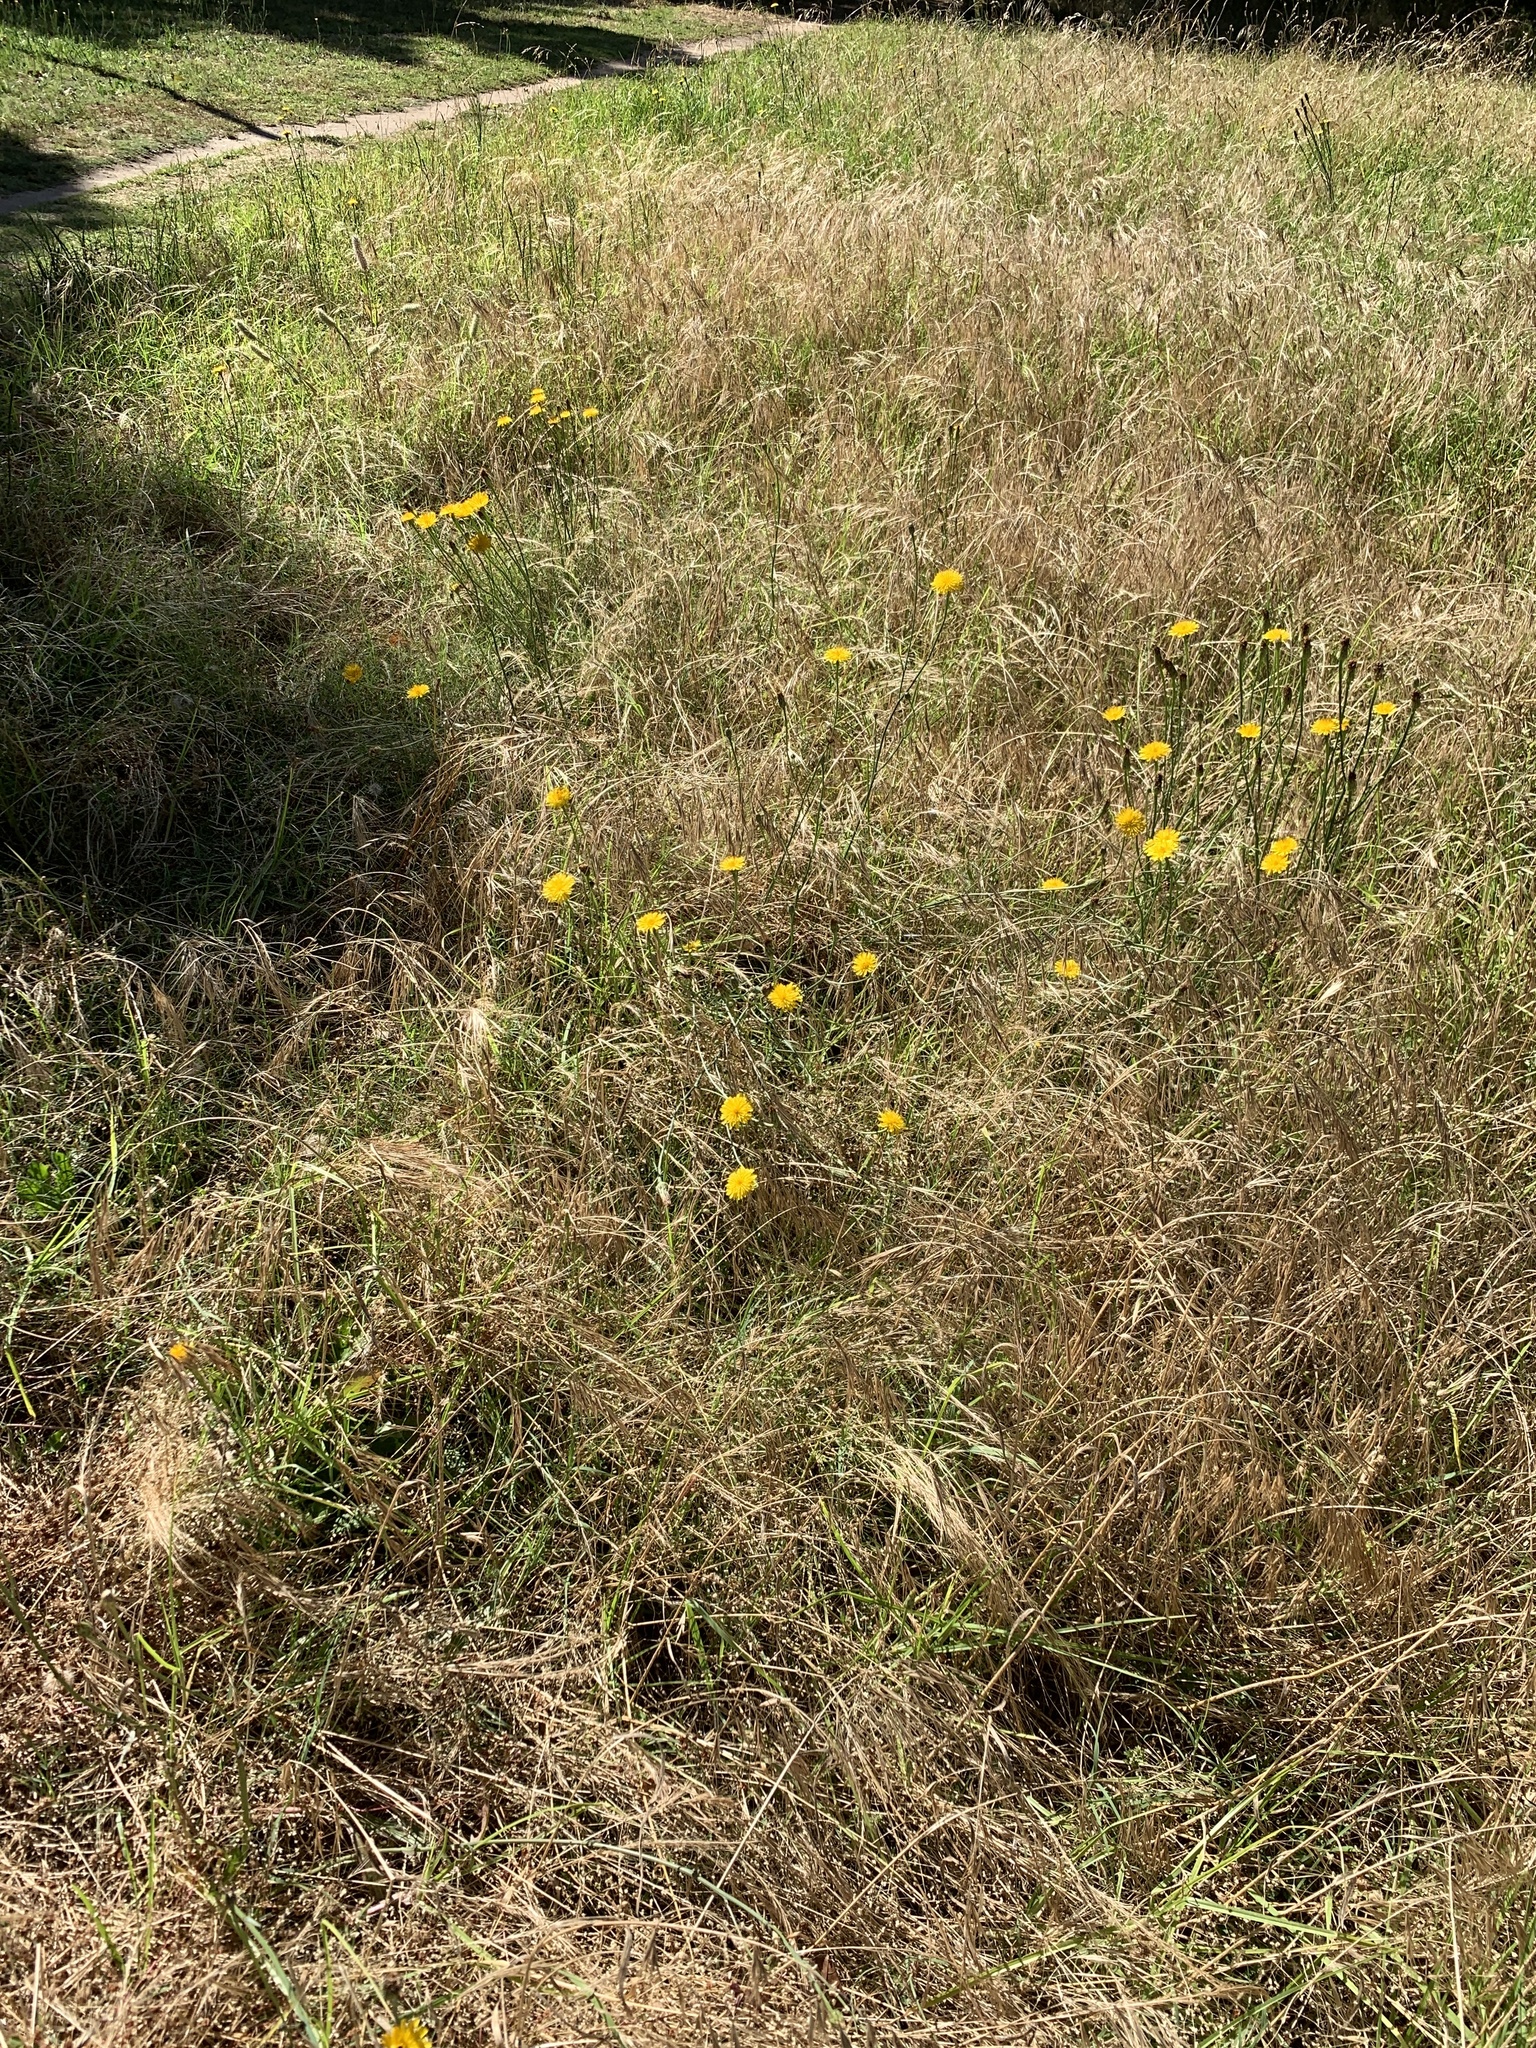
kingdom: Plantae
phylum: Tracheophyta
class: Magnoliopsida
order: Asterales
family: Asteraceae
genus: Hypochaeris
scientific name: Hypochaeris radicata
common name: Flatweed
